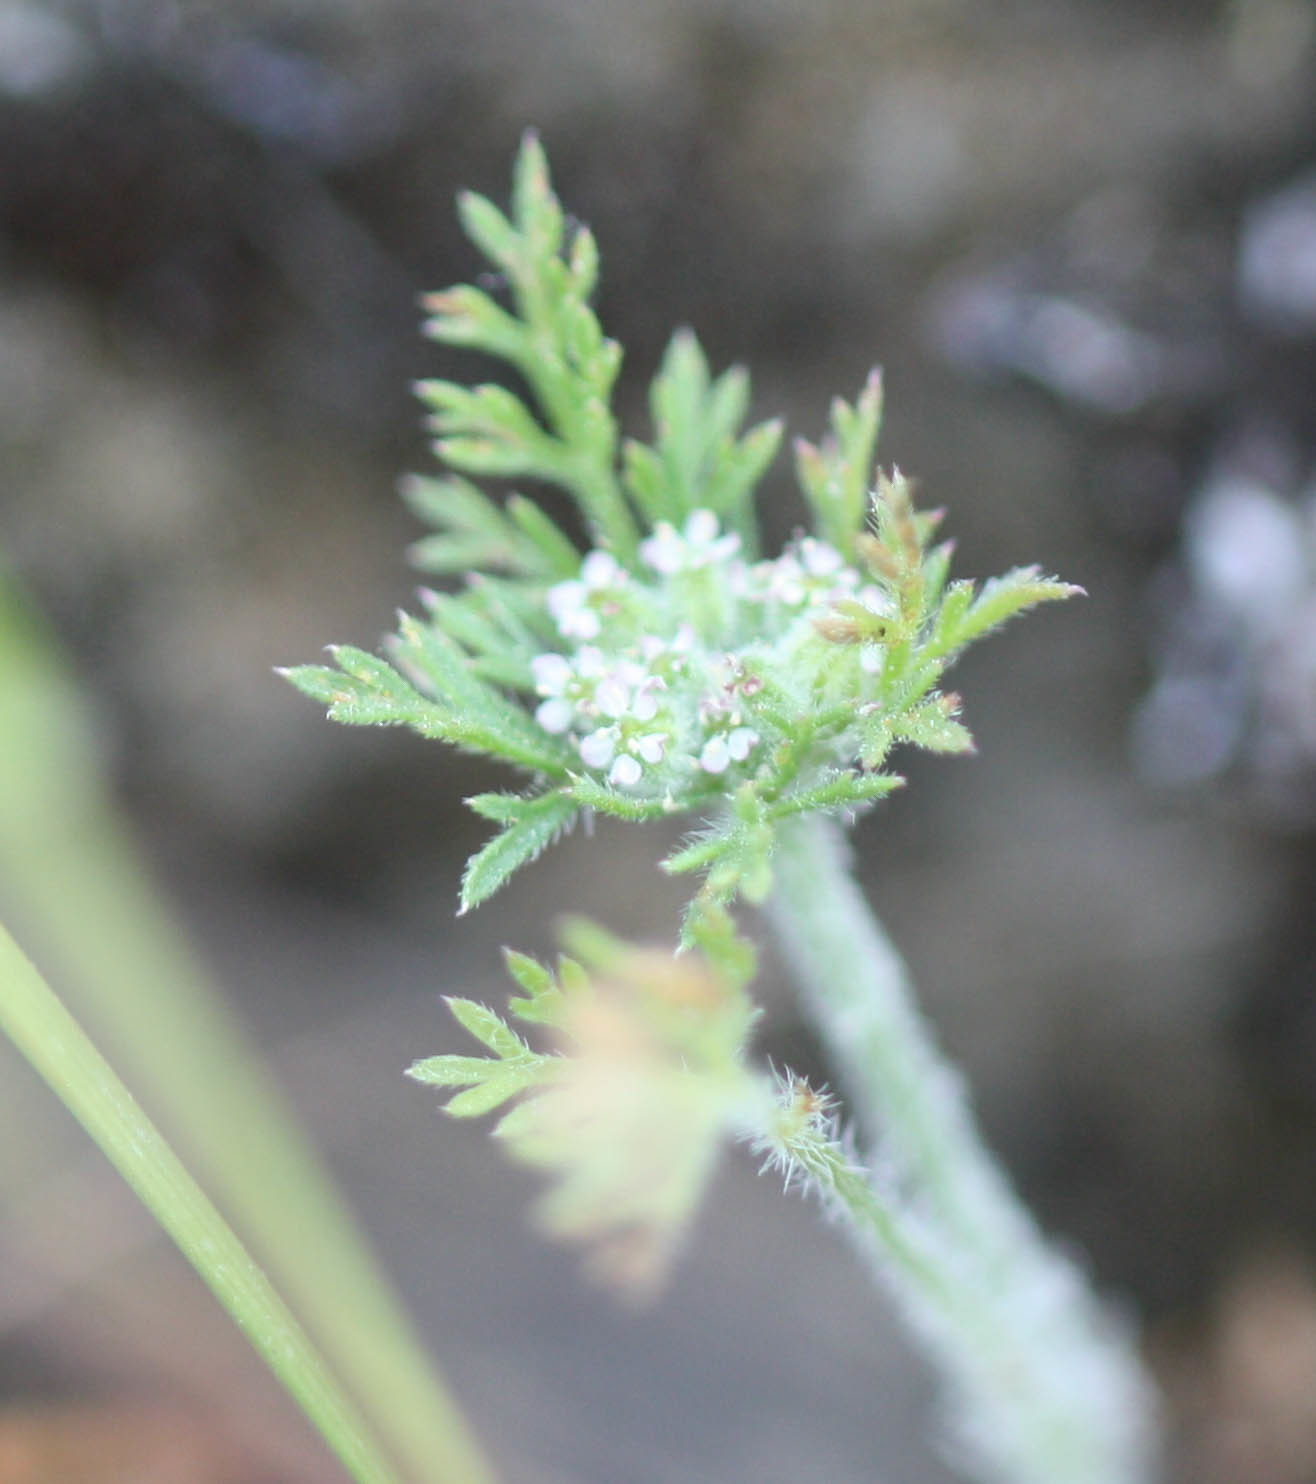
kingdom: Plantae
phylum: Tracheophyta
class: Magnoliopsida
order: Apiales
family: Apiaceae
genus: Daucus
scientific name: Daucus pusillus
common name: Southwest wild carrot
